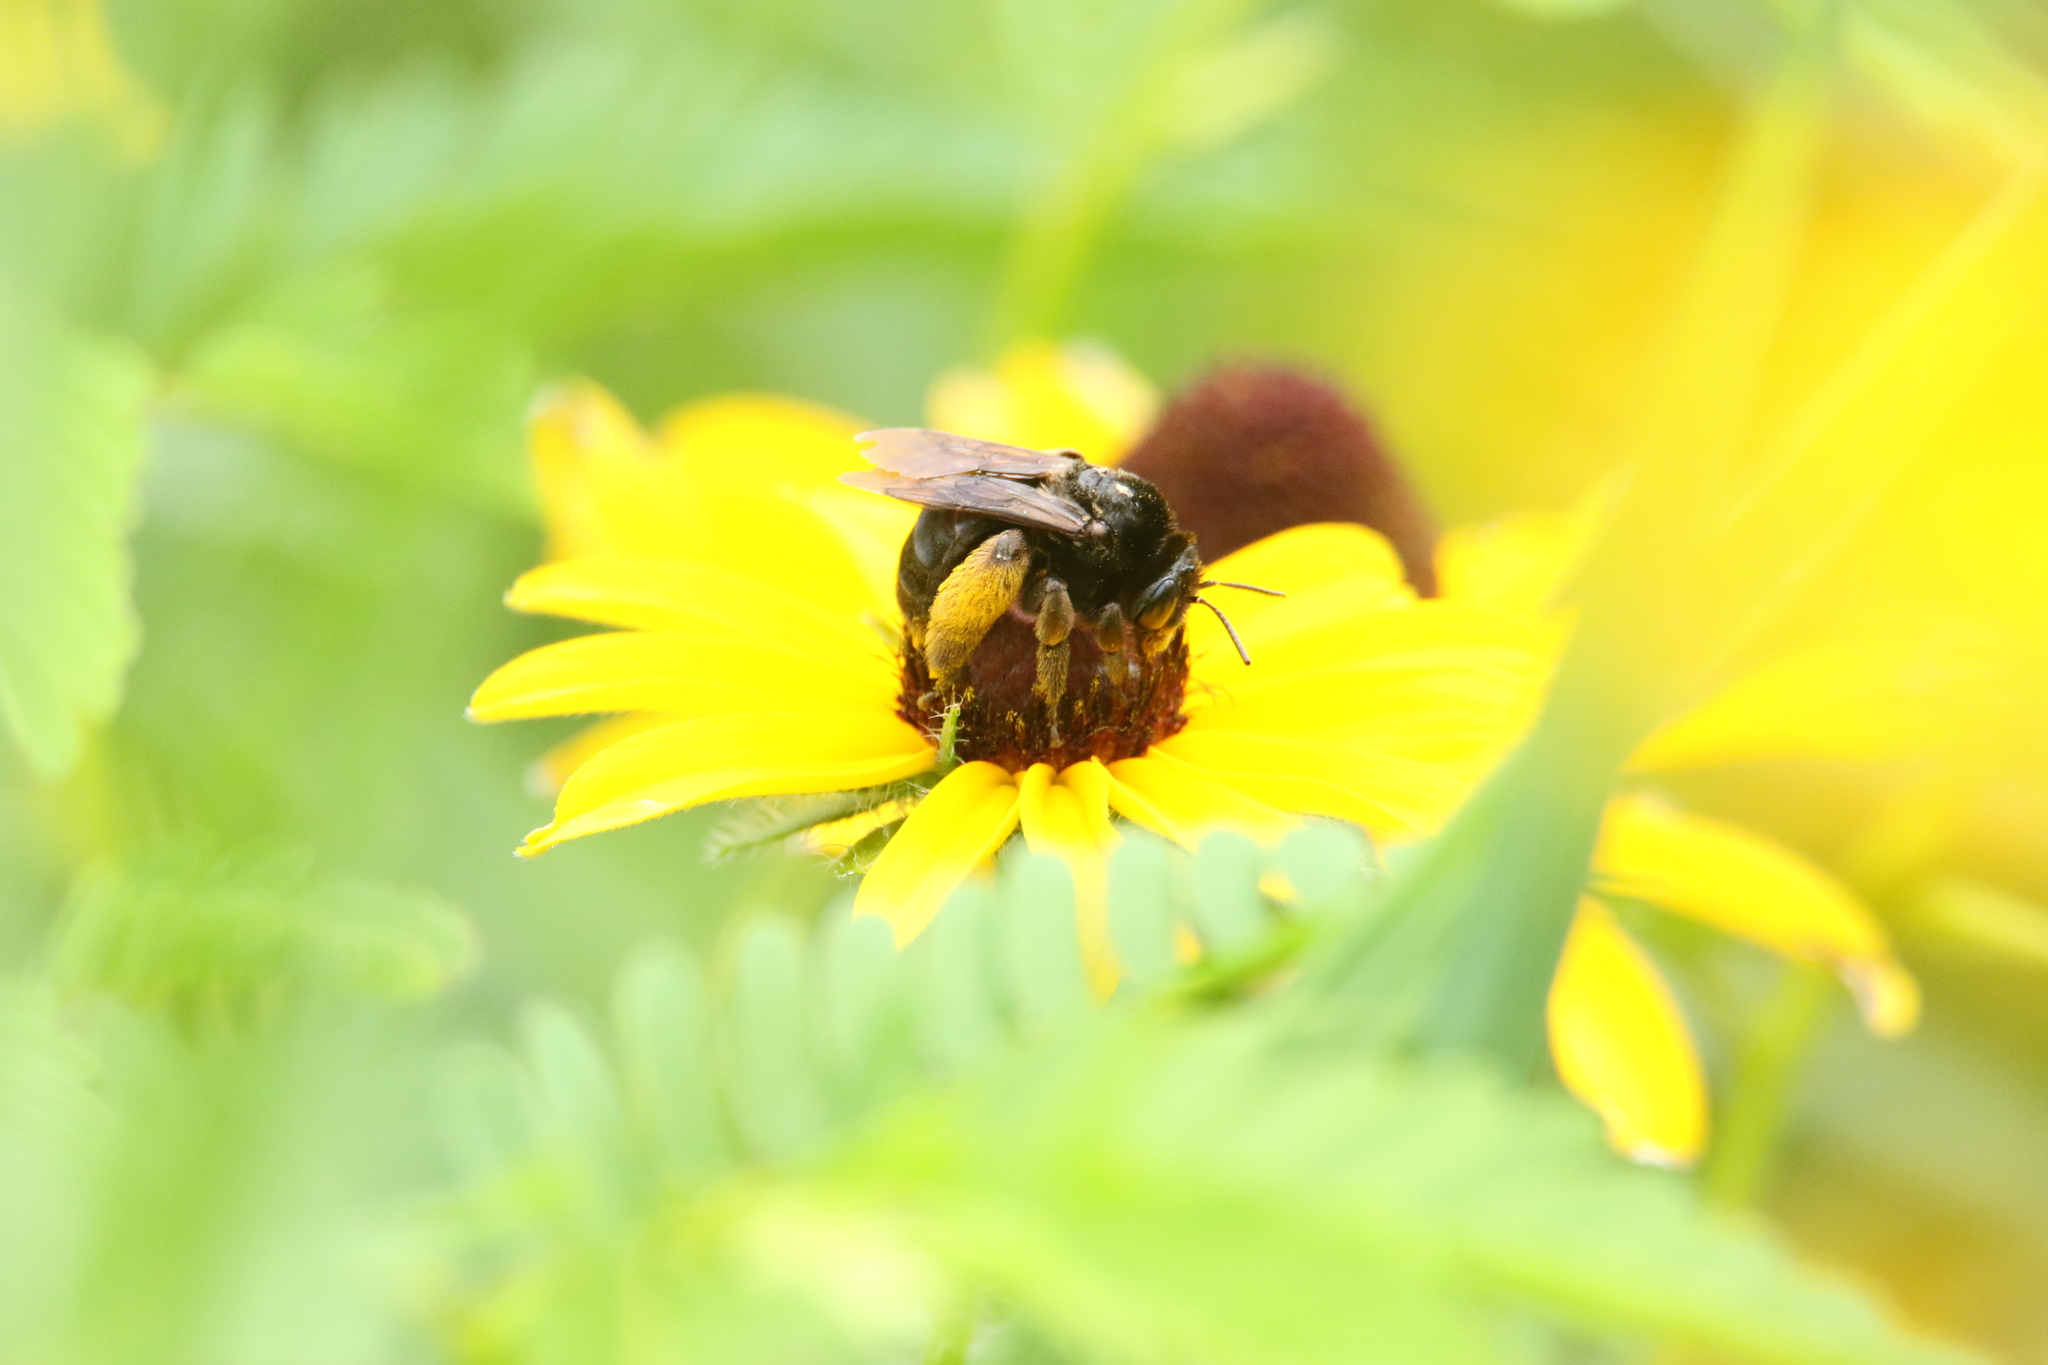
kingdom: Animalia
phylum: Arthropoda
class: Insecta
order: Hymenoptera
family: Apidae
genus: Melissodes
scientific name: Melissodes bimaculatus
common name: Two-spotted long-horned bee
